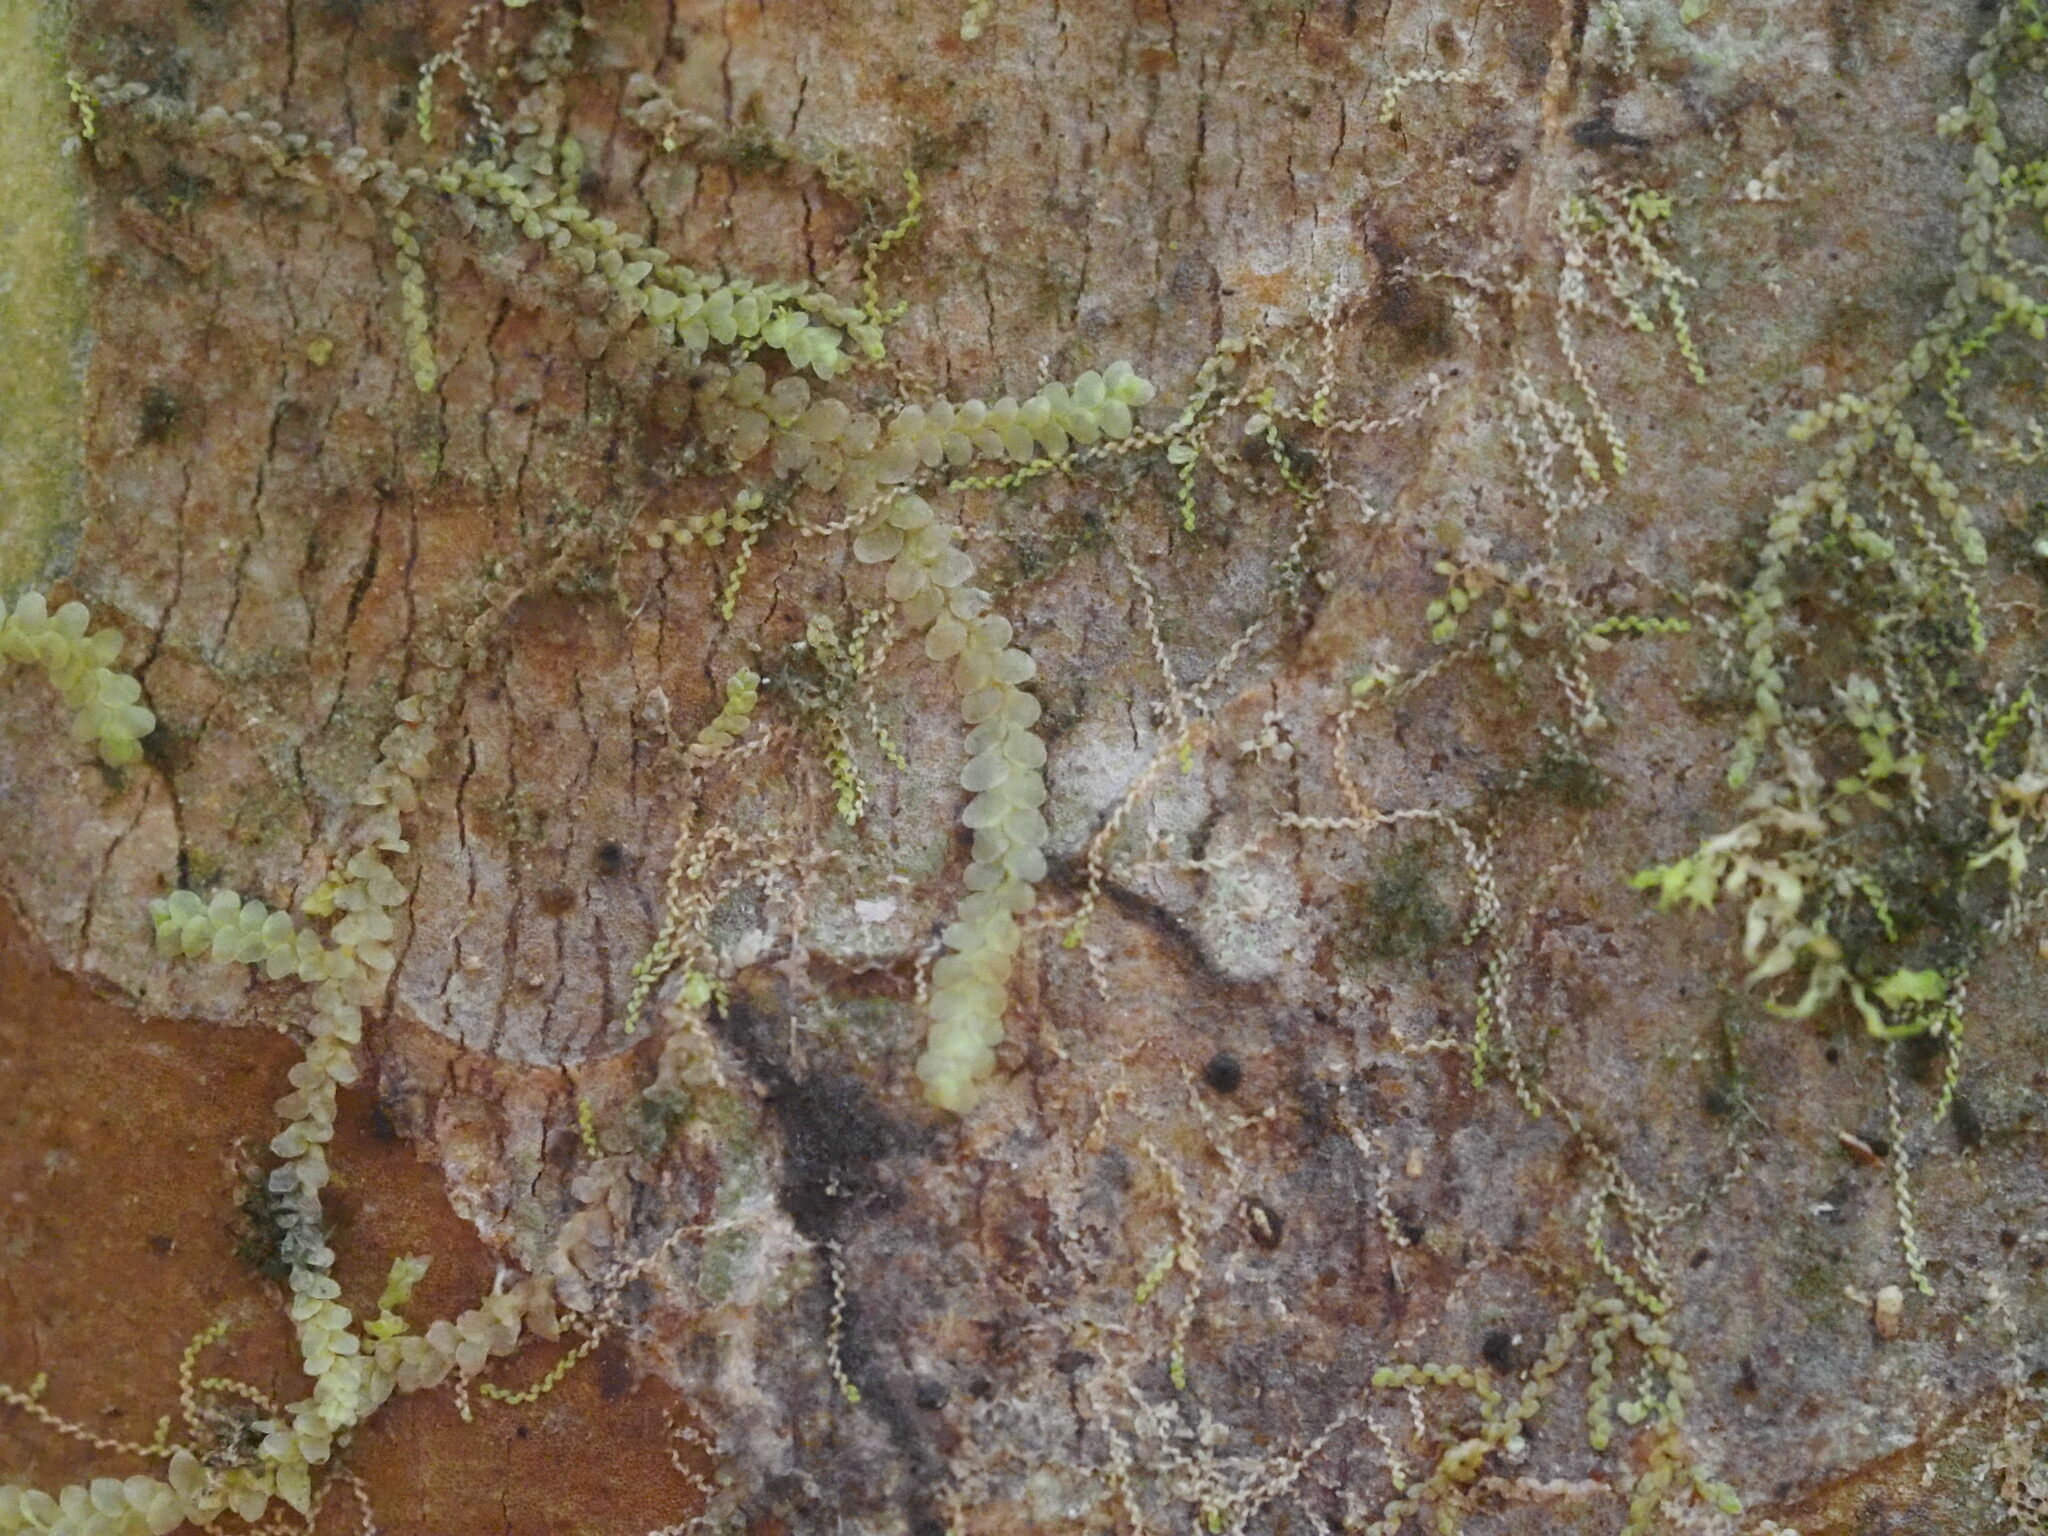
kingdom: Plantae
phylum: Marchantiophyta
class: Jungermanniopsida
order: Porellales
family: Lejeuneaceae
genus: Metalejeunea
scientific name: Metalejeunea cucullata
